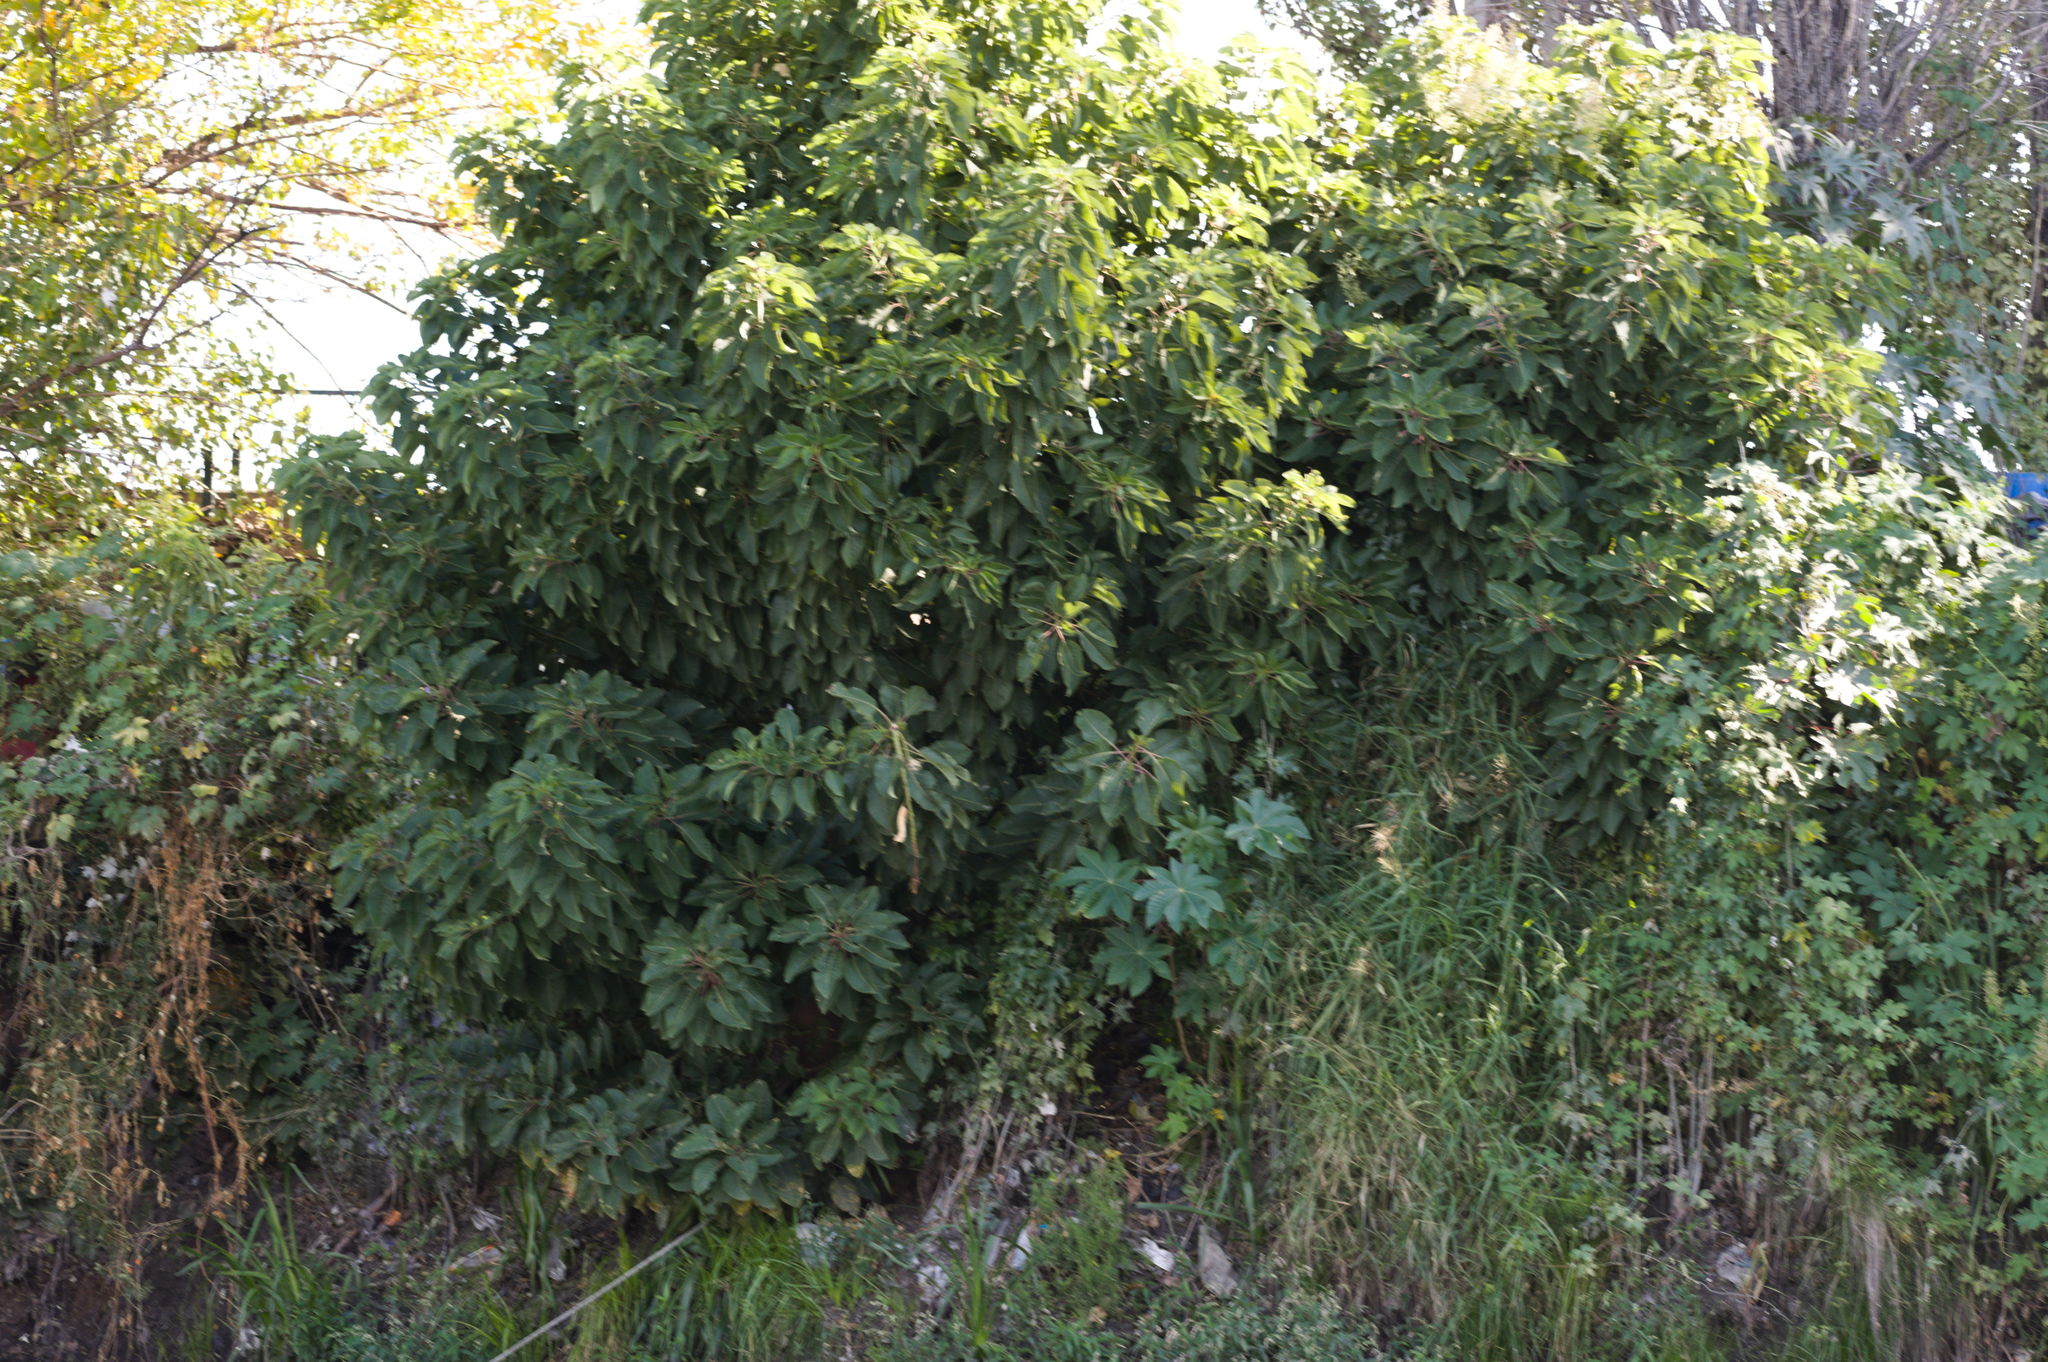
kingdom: Plantae
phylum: Tracheophyta
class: Magnoliopsida
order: Caryophyllales
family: Phytolaccaceae
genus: Phytolacca
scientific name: Phytolacca dioica
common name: Pokeweed
